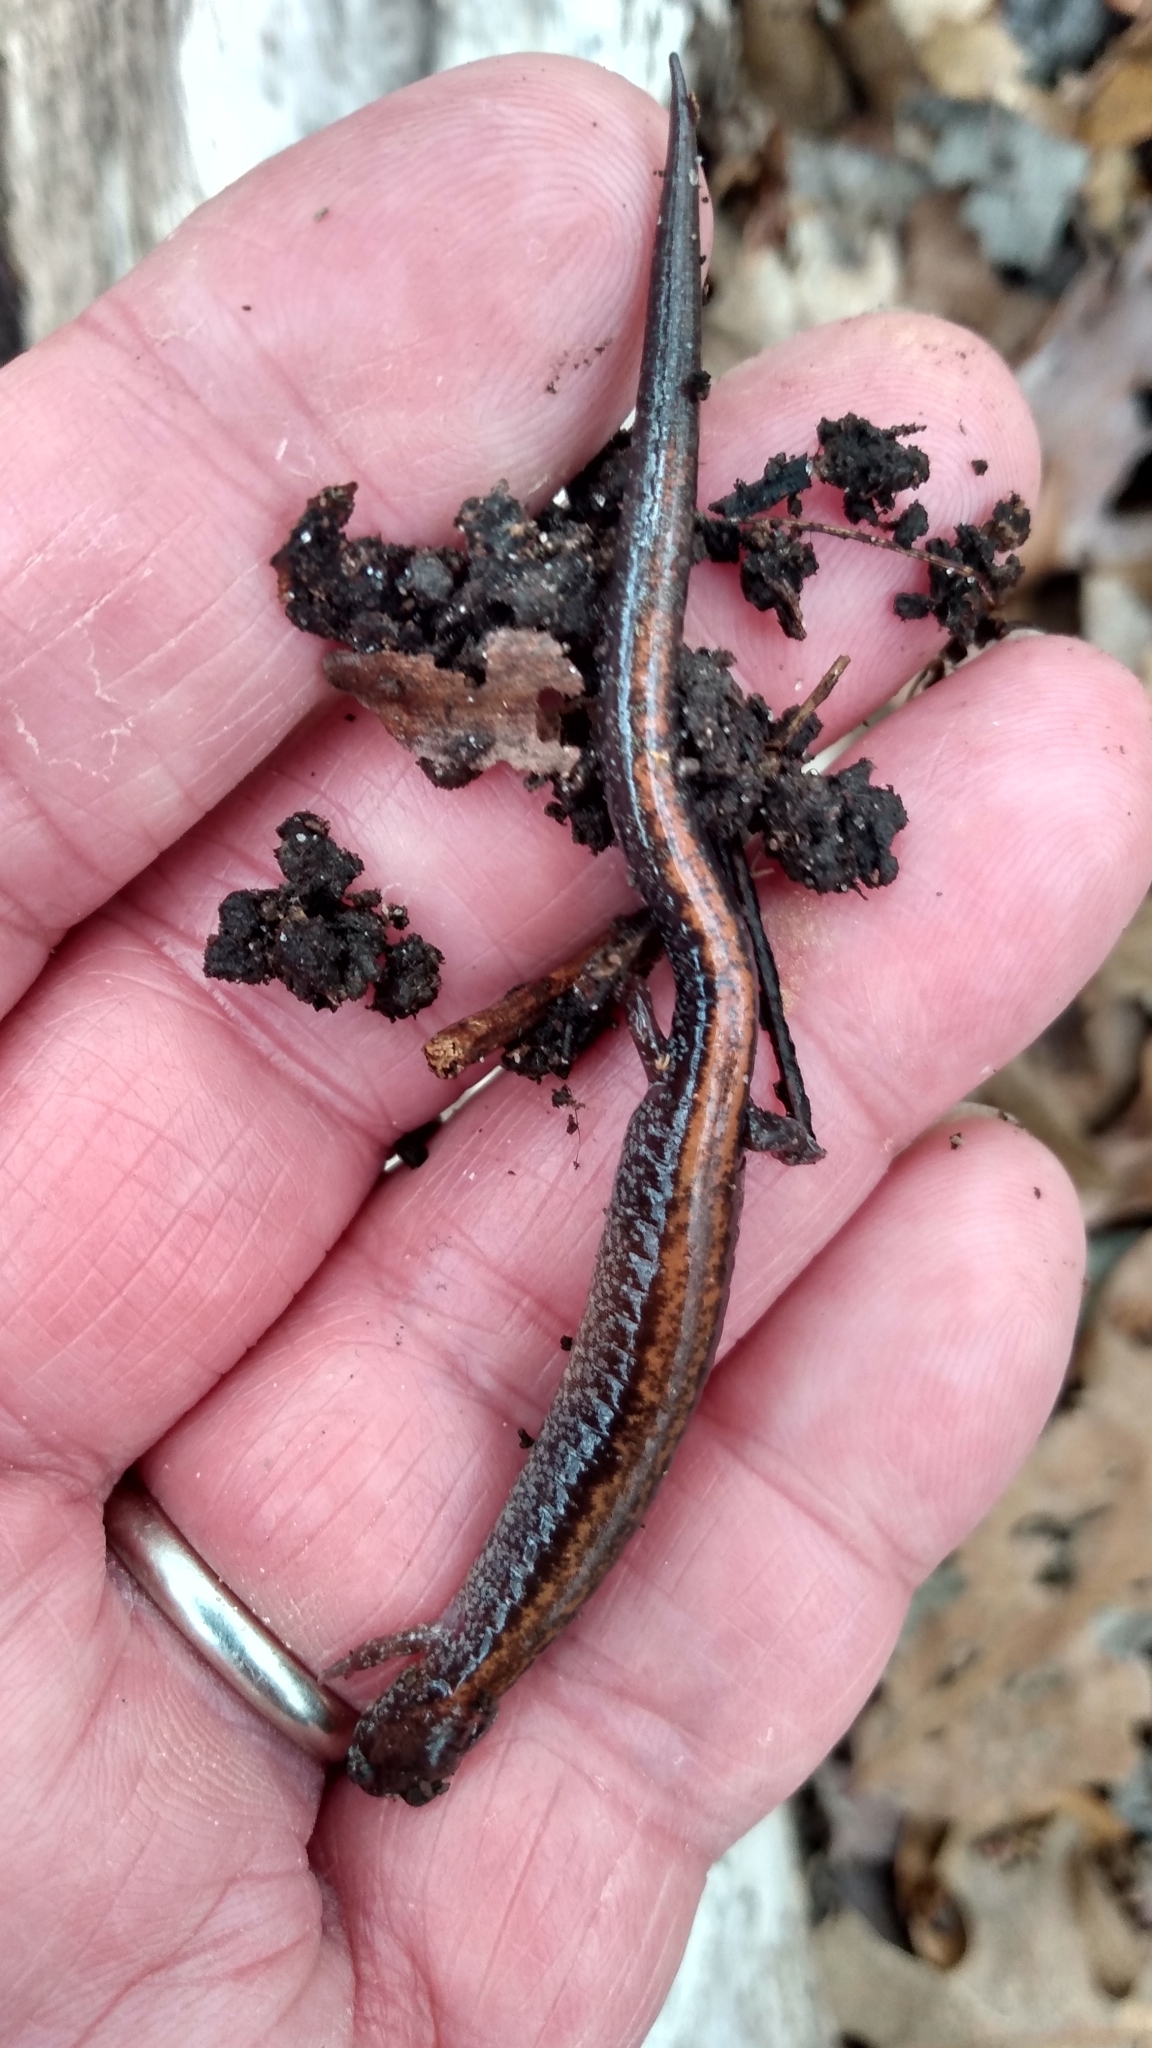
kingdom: Animalia
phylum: Chordata
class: Amphibia
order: Caudata
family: Plethodontidae
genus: Plethodon
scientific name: Plethodon cinereus
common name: Redback salamander
